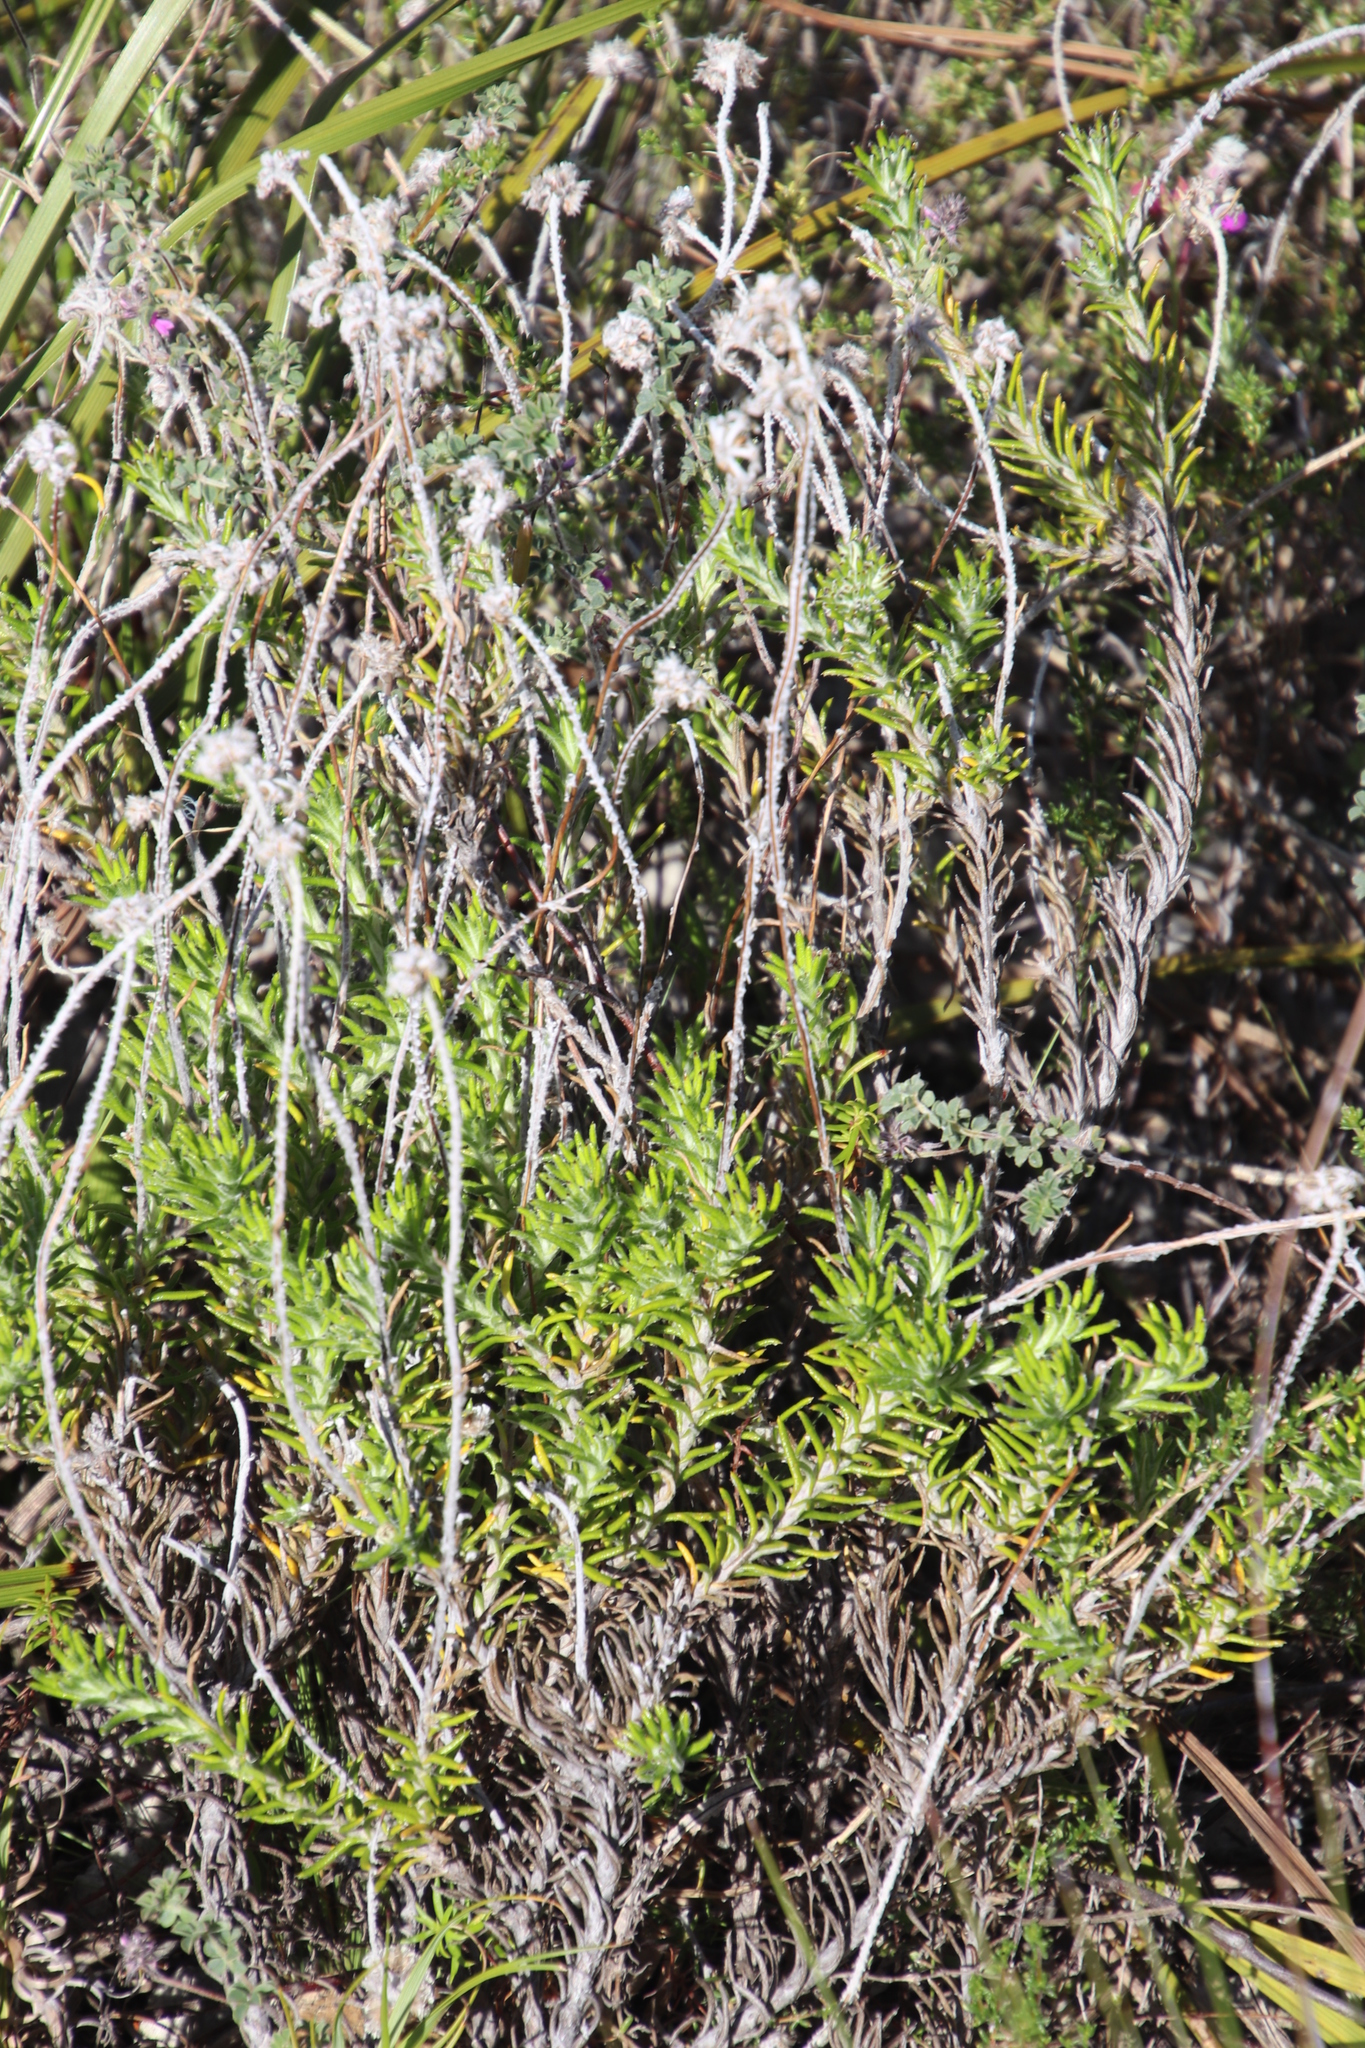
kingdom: Plantae
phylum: Tracheophyta
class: Magnoliopsida
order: Asterales
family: Asteraceae
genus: Anaxeton
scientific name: Anaxeton asperum
